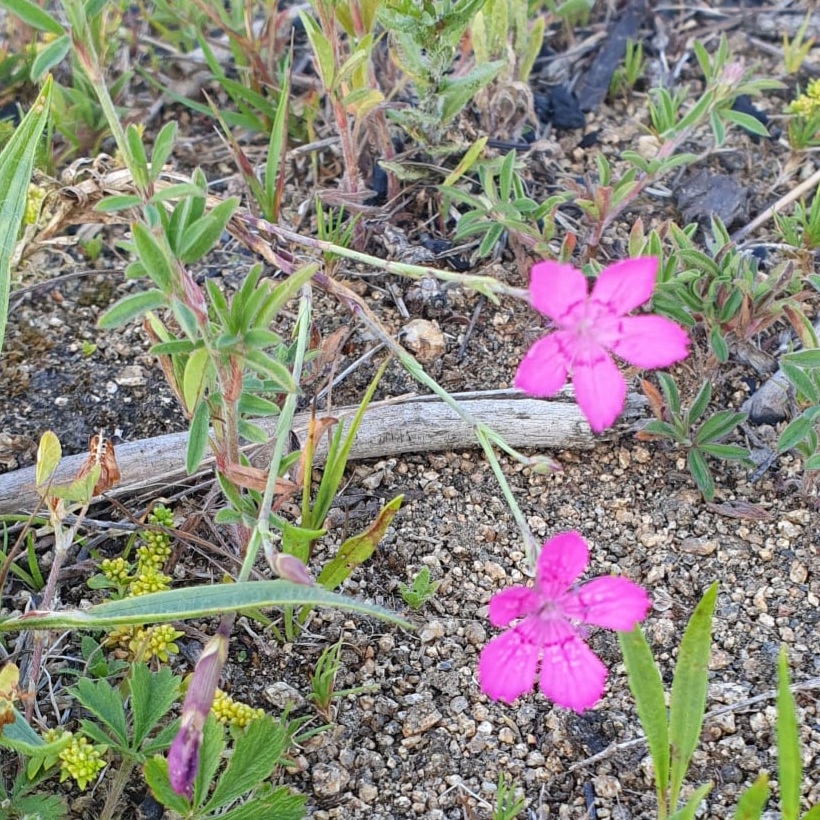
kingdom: Plantae
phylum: Tracheophyta
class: Magnoliopsida
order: Caryophyllales
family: Caryophyllaceae
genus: Dianthus
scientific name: Dianthus deltoides
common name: Maiden pink
